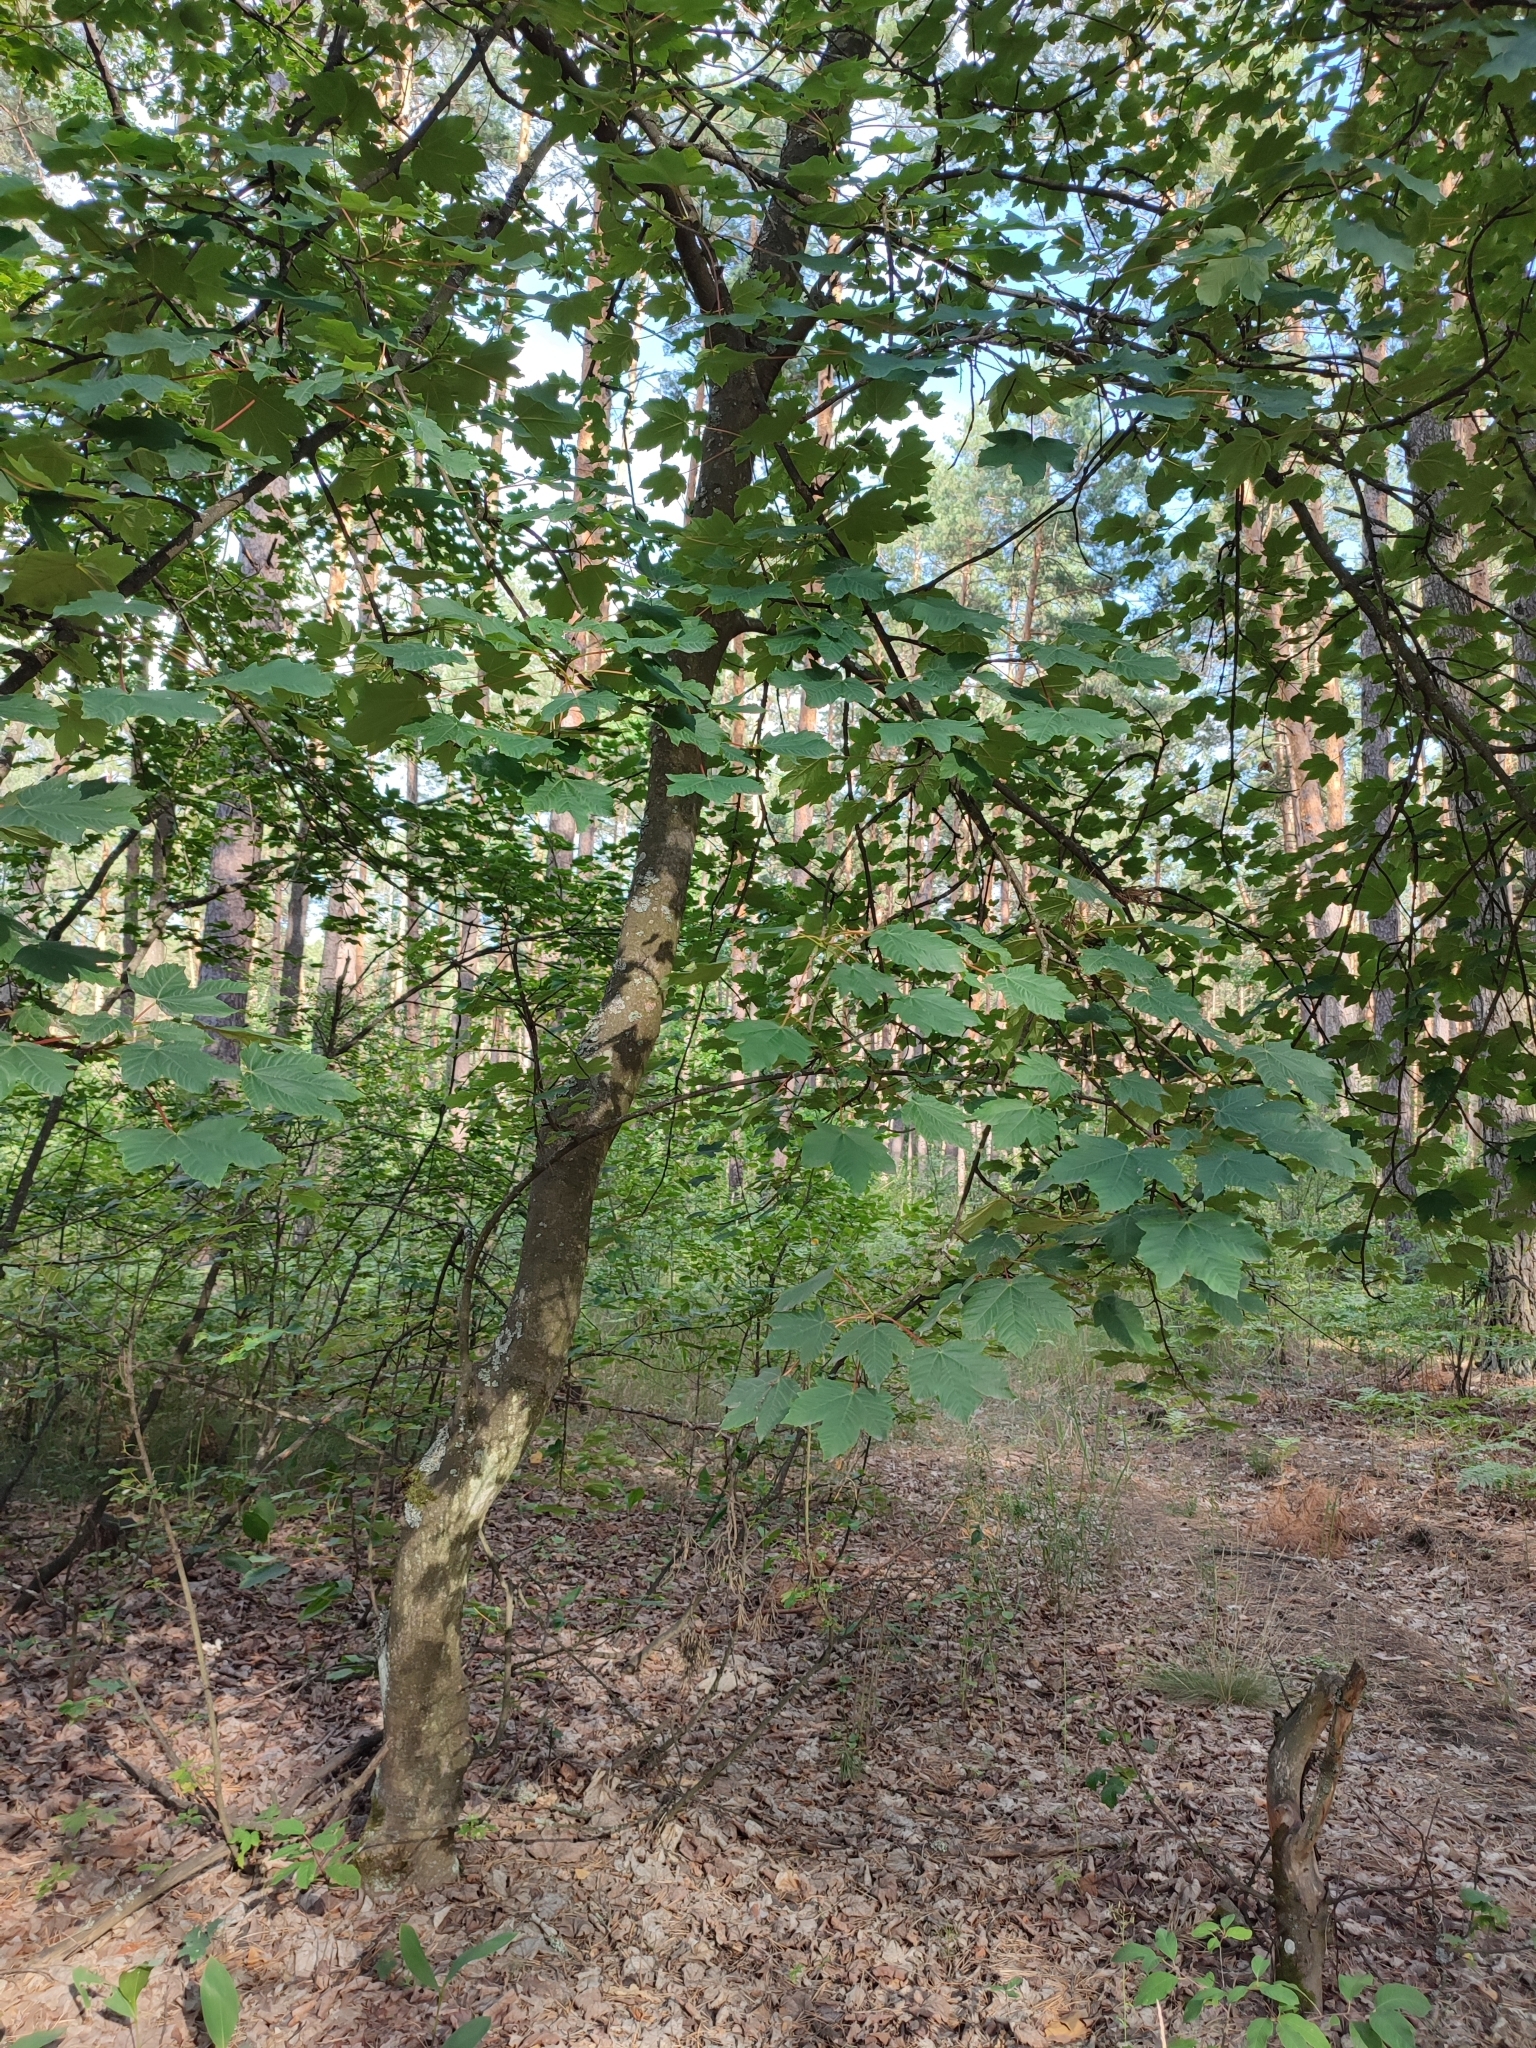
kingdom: Plantae
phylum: Tracheophyta
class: Magnoliopsida
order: Sapindales
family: Sapindaceae
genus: Acer
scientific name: Acer pseudoplatanus
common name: Sycamore
